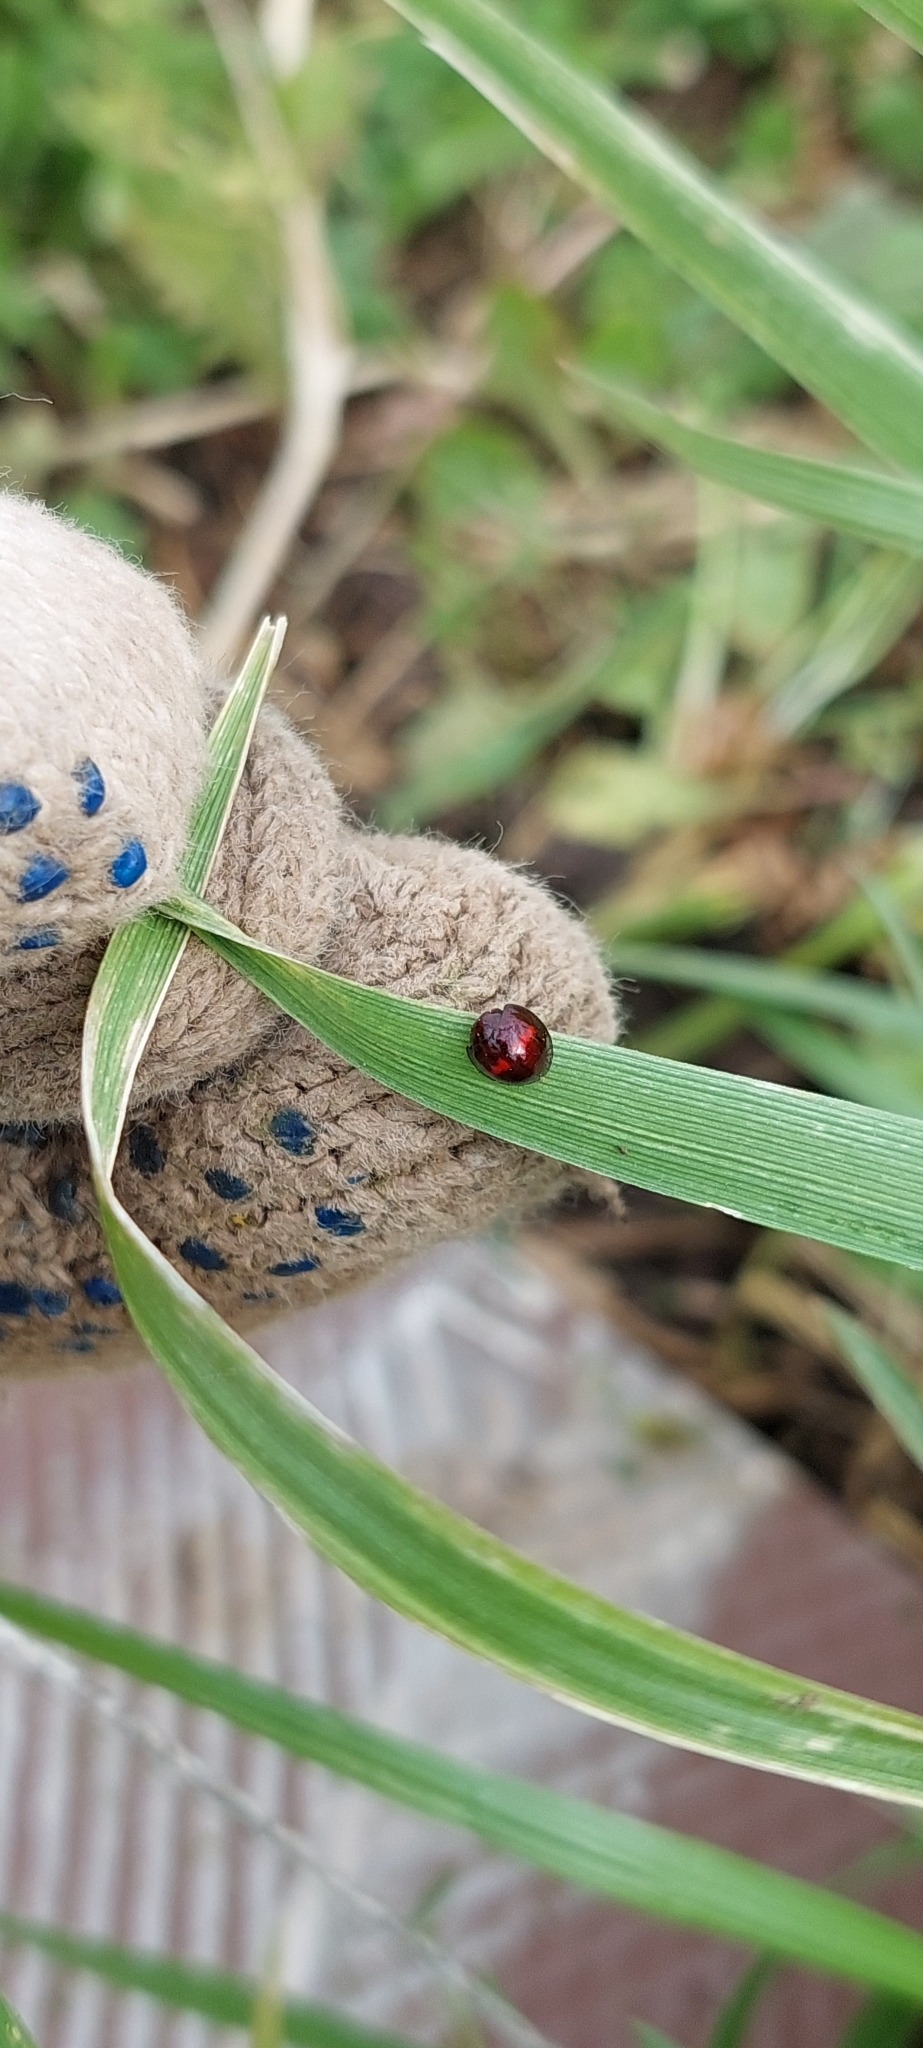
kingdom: Animalia
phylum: Arthropoda
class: Insecta
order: Coleoptera
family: Coccinellidae
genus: Chilocorus
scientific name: Chilocorus bipustulatus
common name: Heather ladybird
